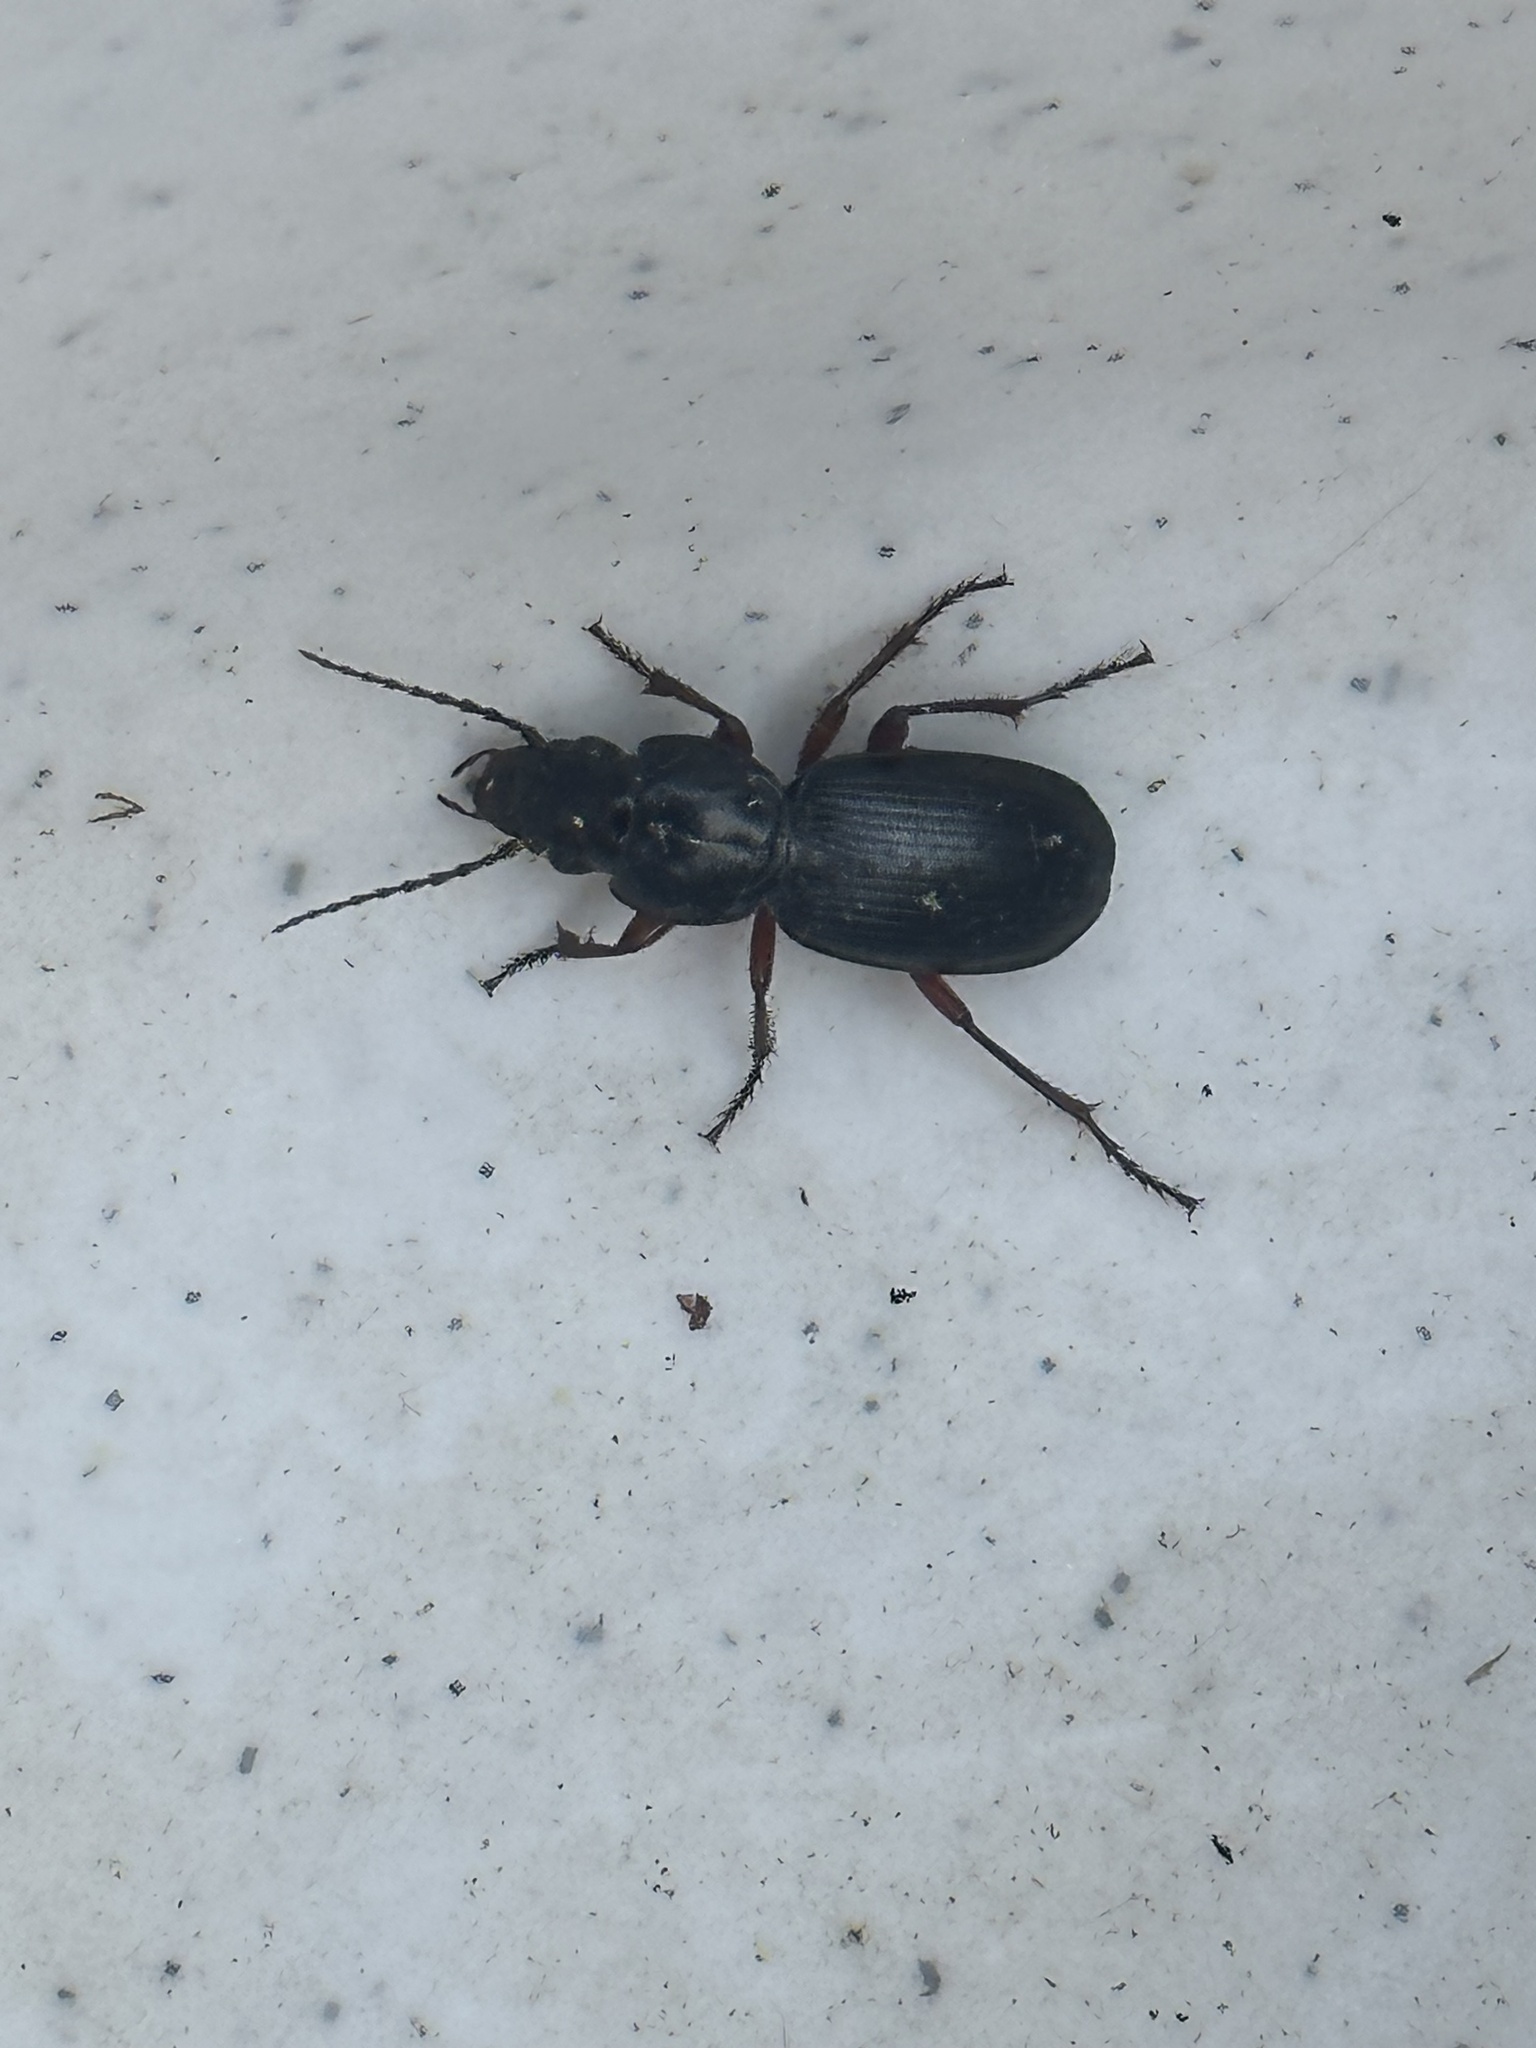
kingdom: Animalia
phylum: Arthropoda
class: Insecta
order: Coleoptera
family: Carabidae
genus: Pterostichus
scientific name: Pterostichus madidus
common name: Black clock
